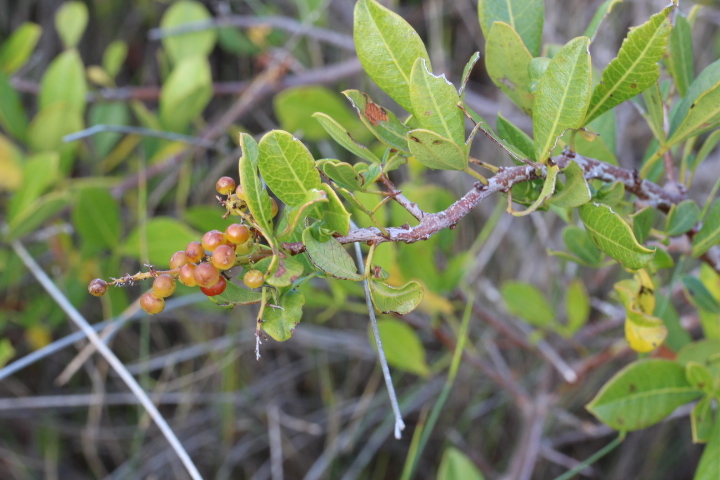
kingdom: Plantae
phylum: Tracheophyta
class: Magnoliopsida
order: Sapindales
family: Anacardiaceae
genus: Searsia
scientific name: Searsia laevigata
